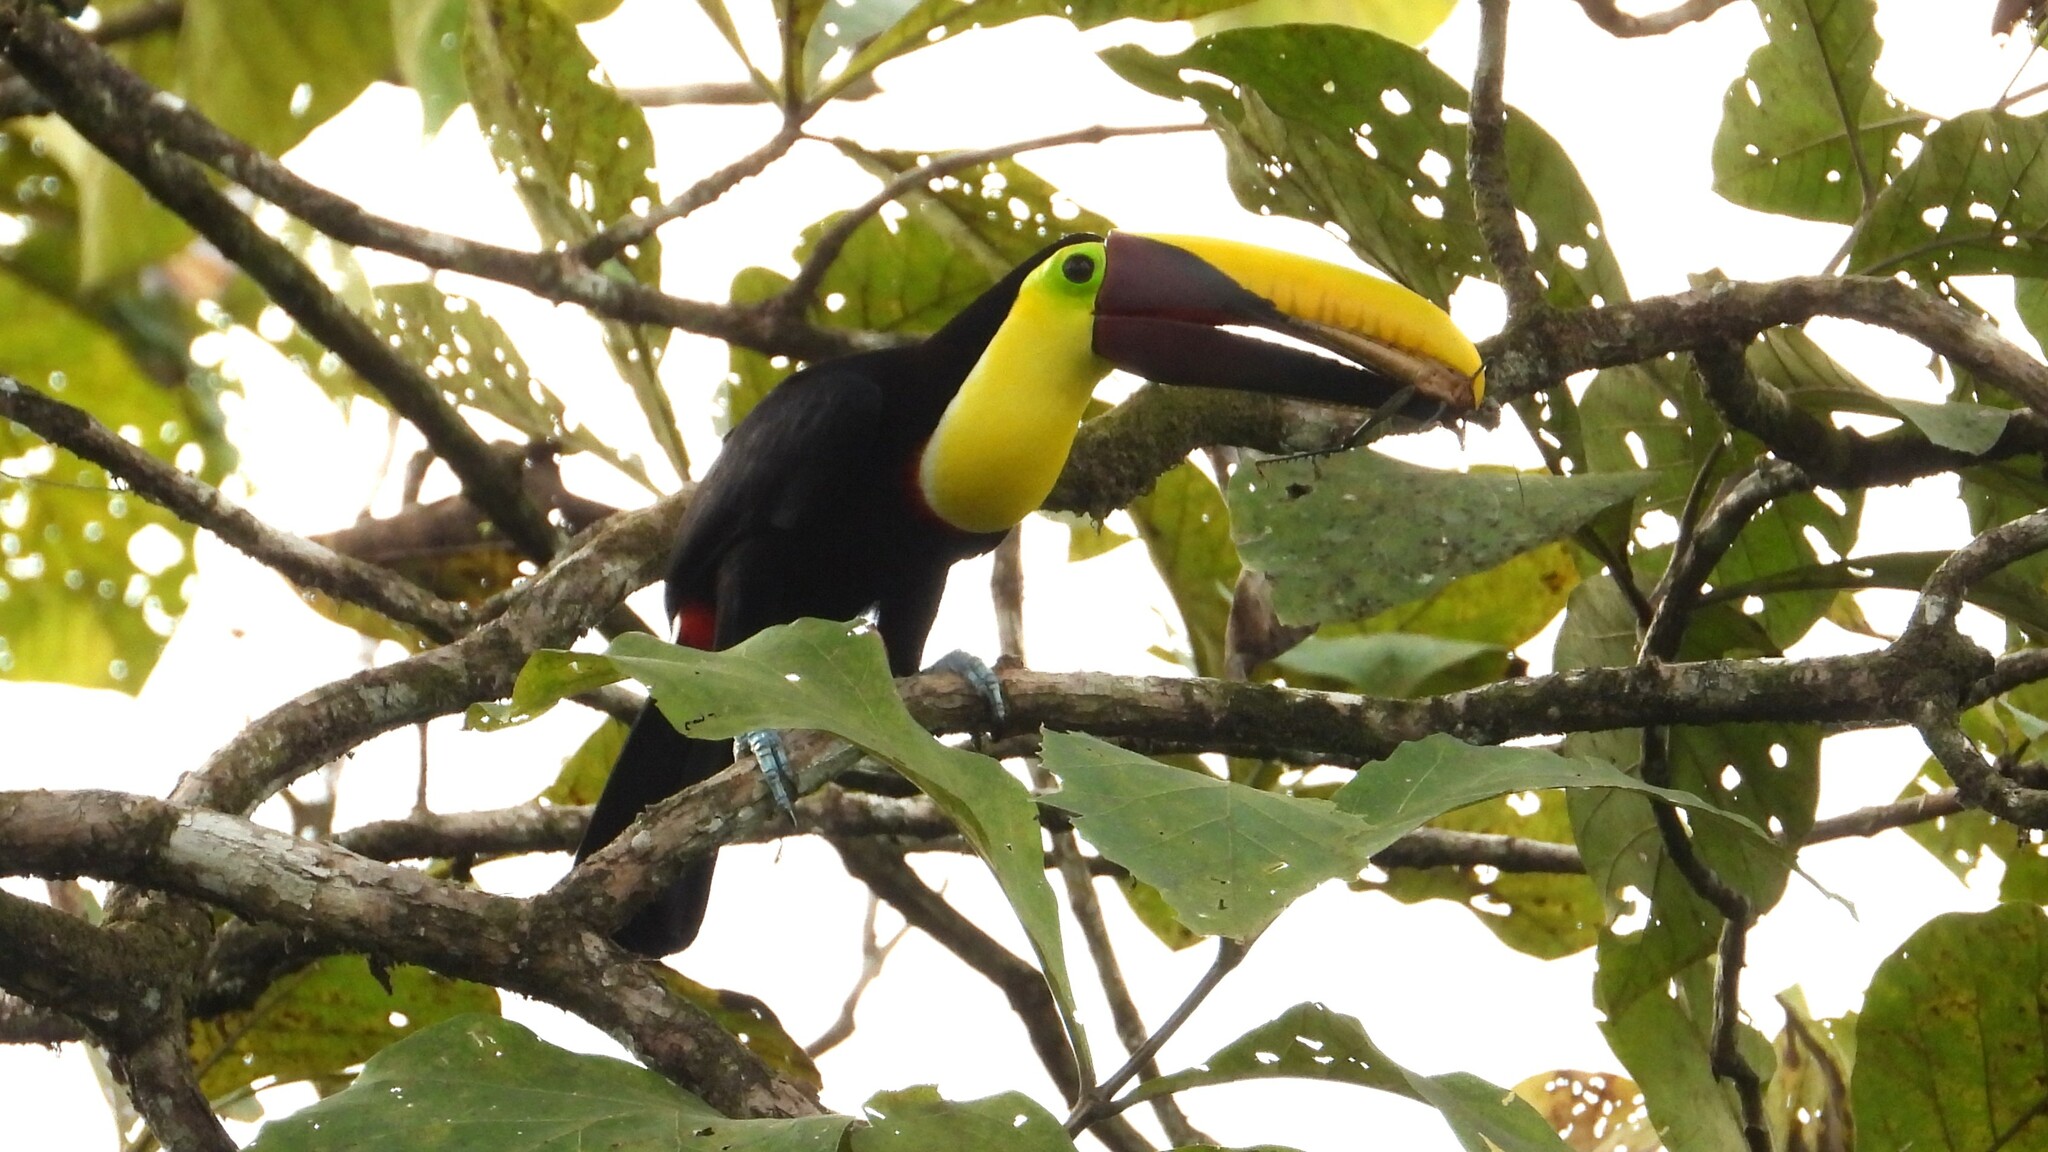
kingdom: Animalia
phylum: Chordata
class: Aves
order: Piciformes
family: Ramphastidae
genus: Ramphastos
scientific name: Ramphastos ambiguus
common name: Yellow-throated toucan
